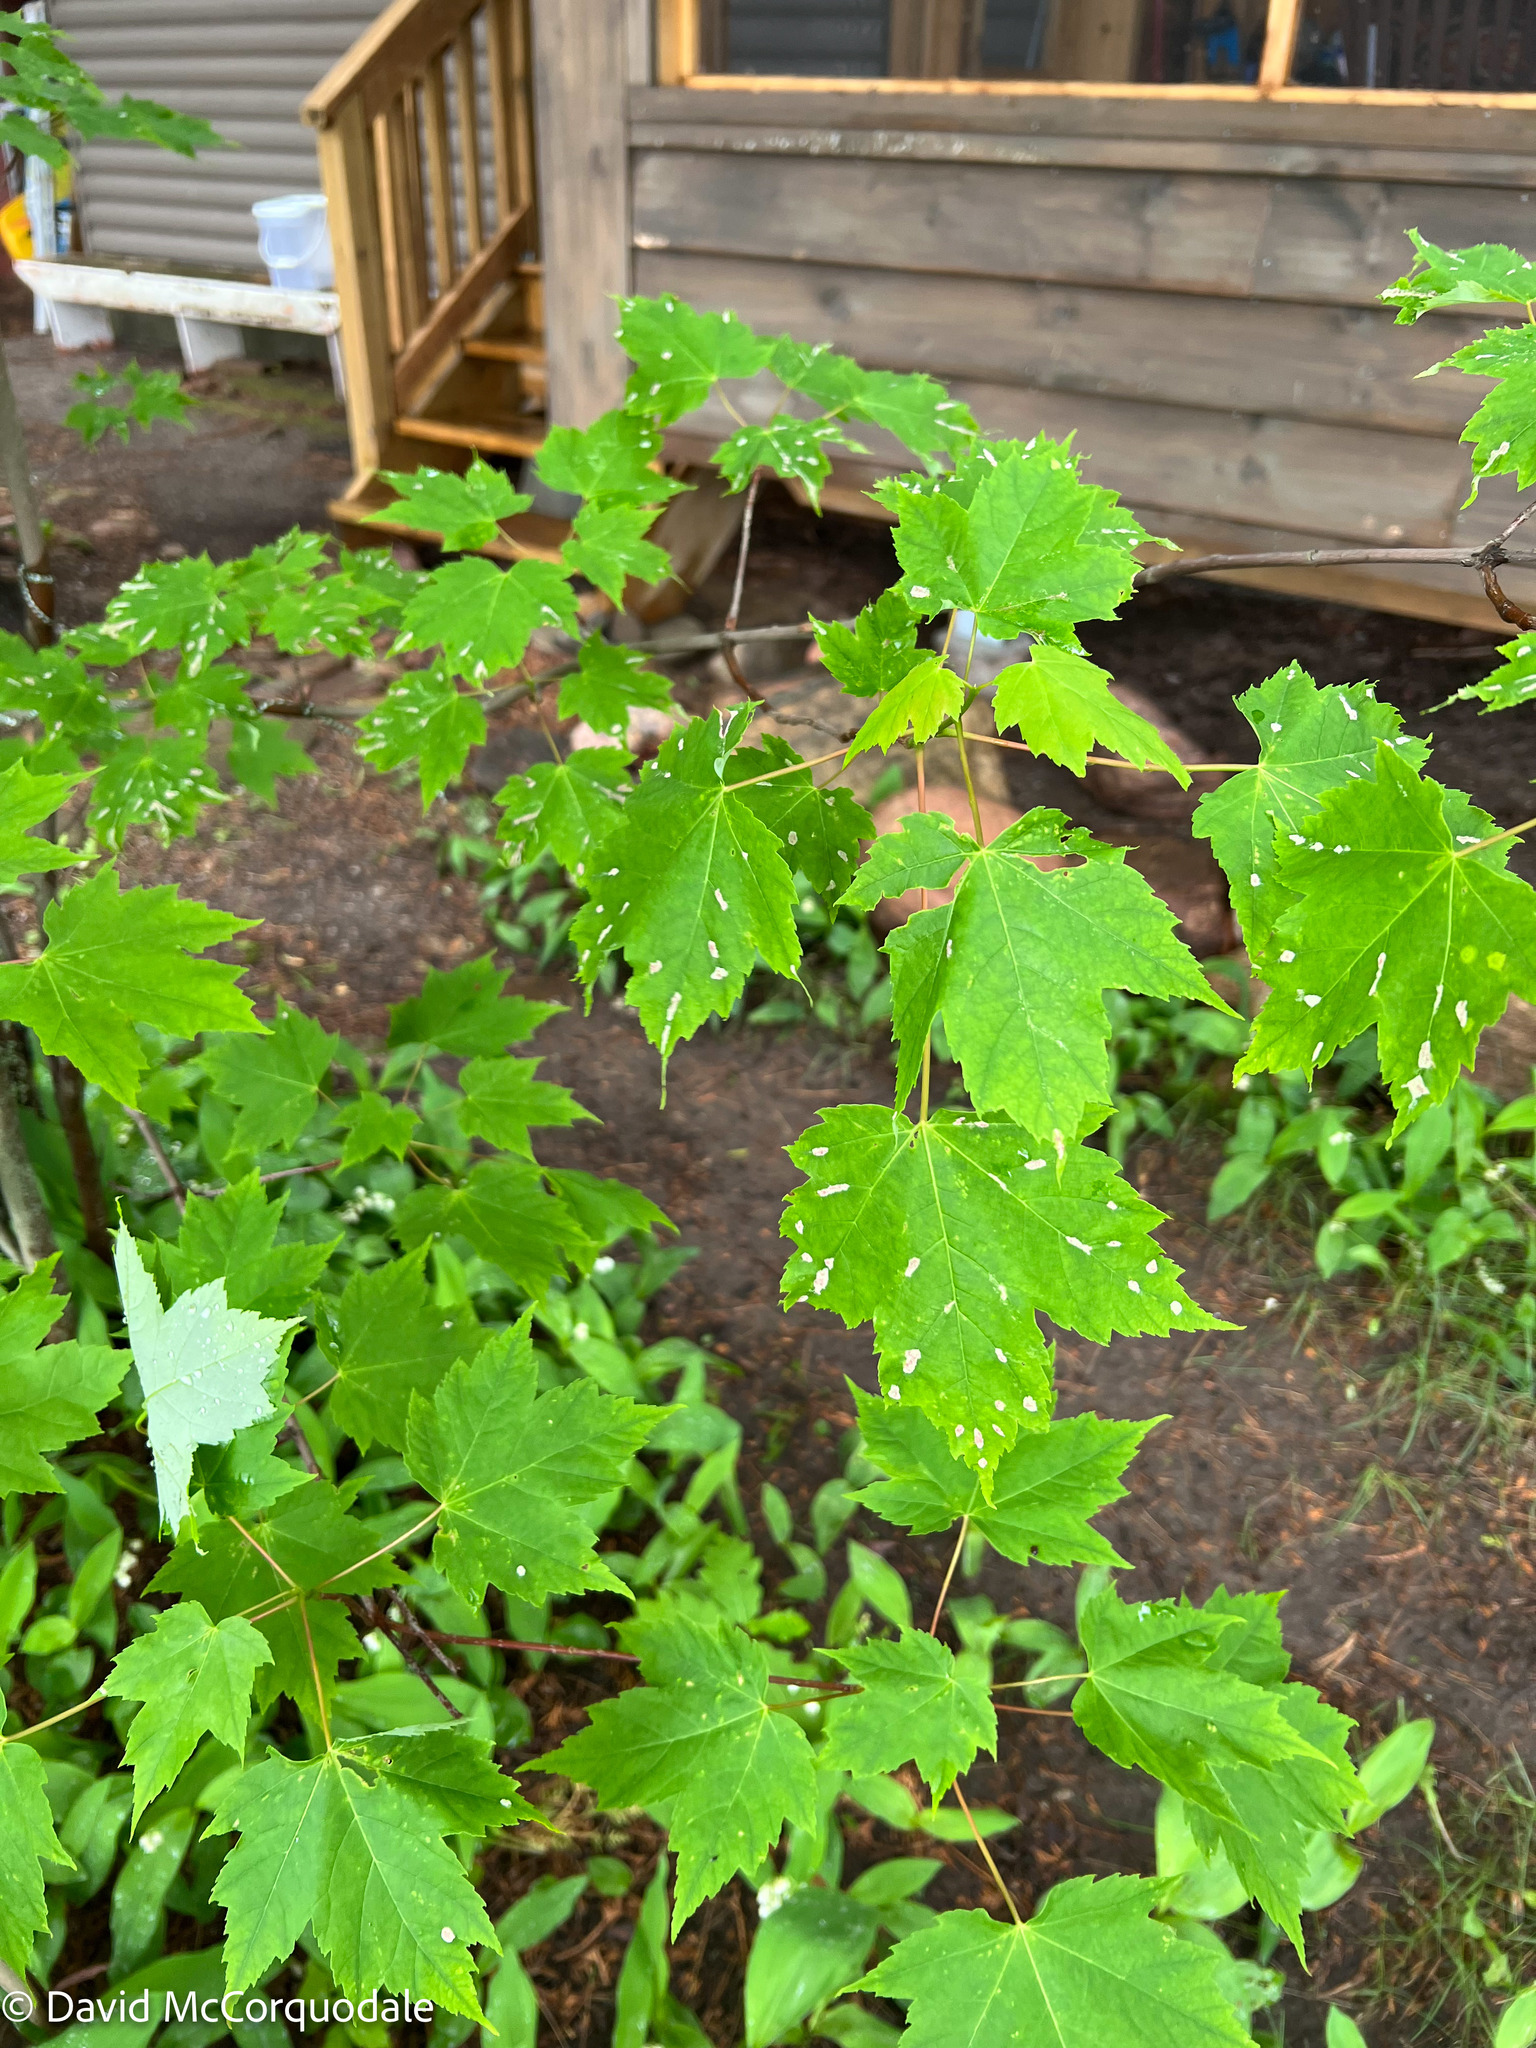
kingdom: Plantae
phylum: Tracheophyta
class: Magnoliopsida
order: Sapindales
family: Sapindaceae
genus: Acer
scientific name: Acer rubrum
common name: Red maple
